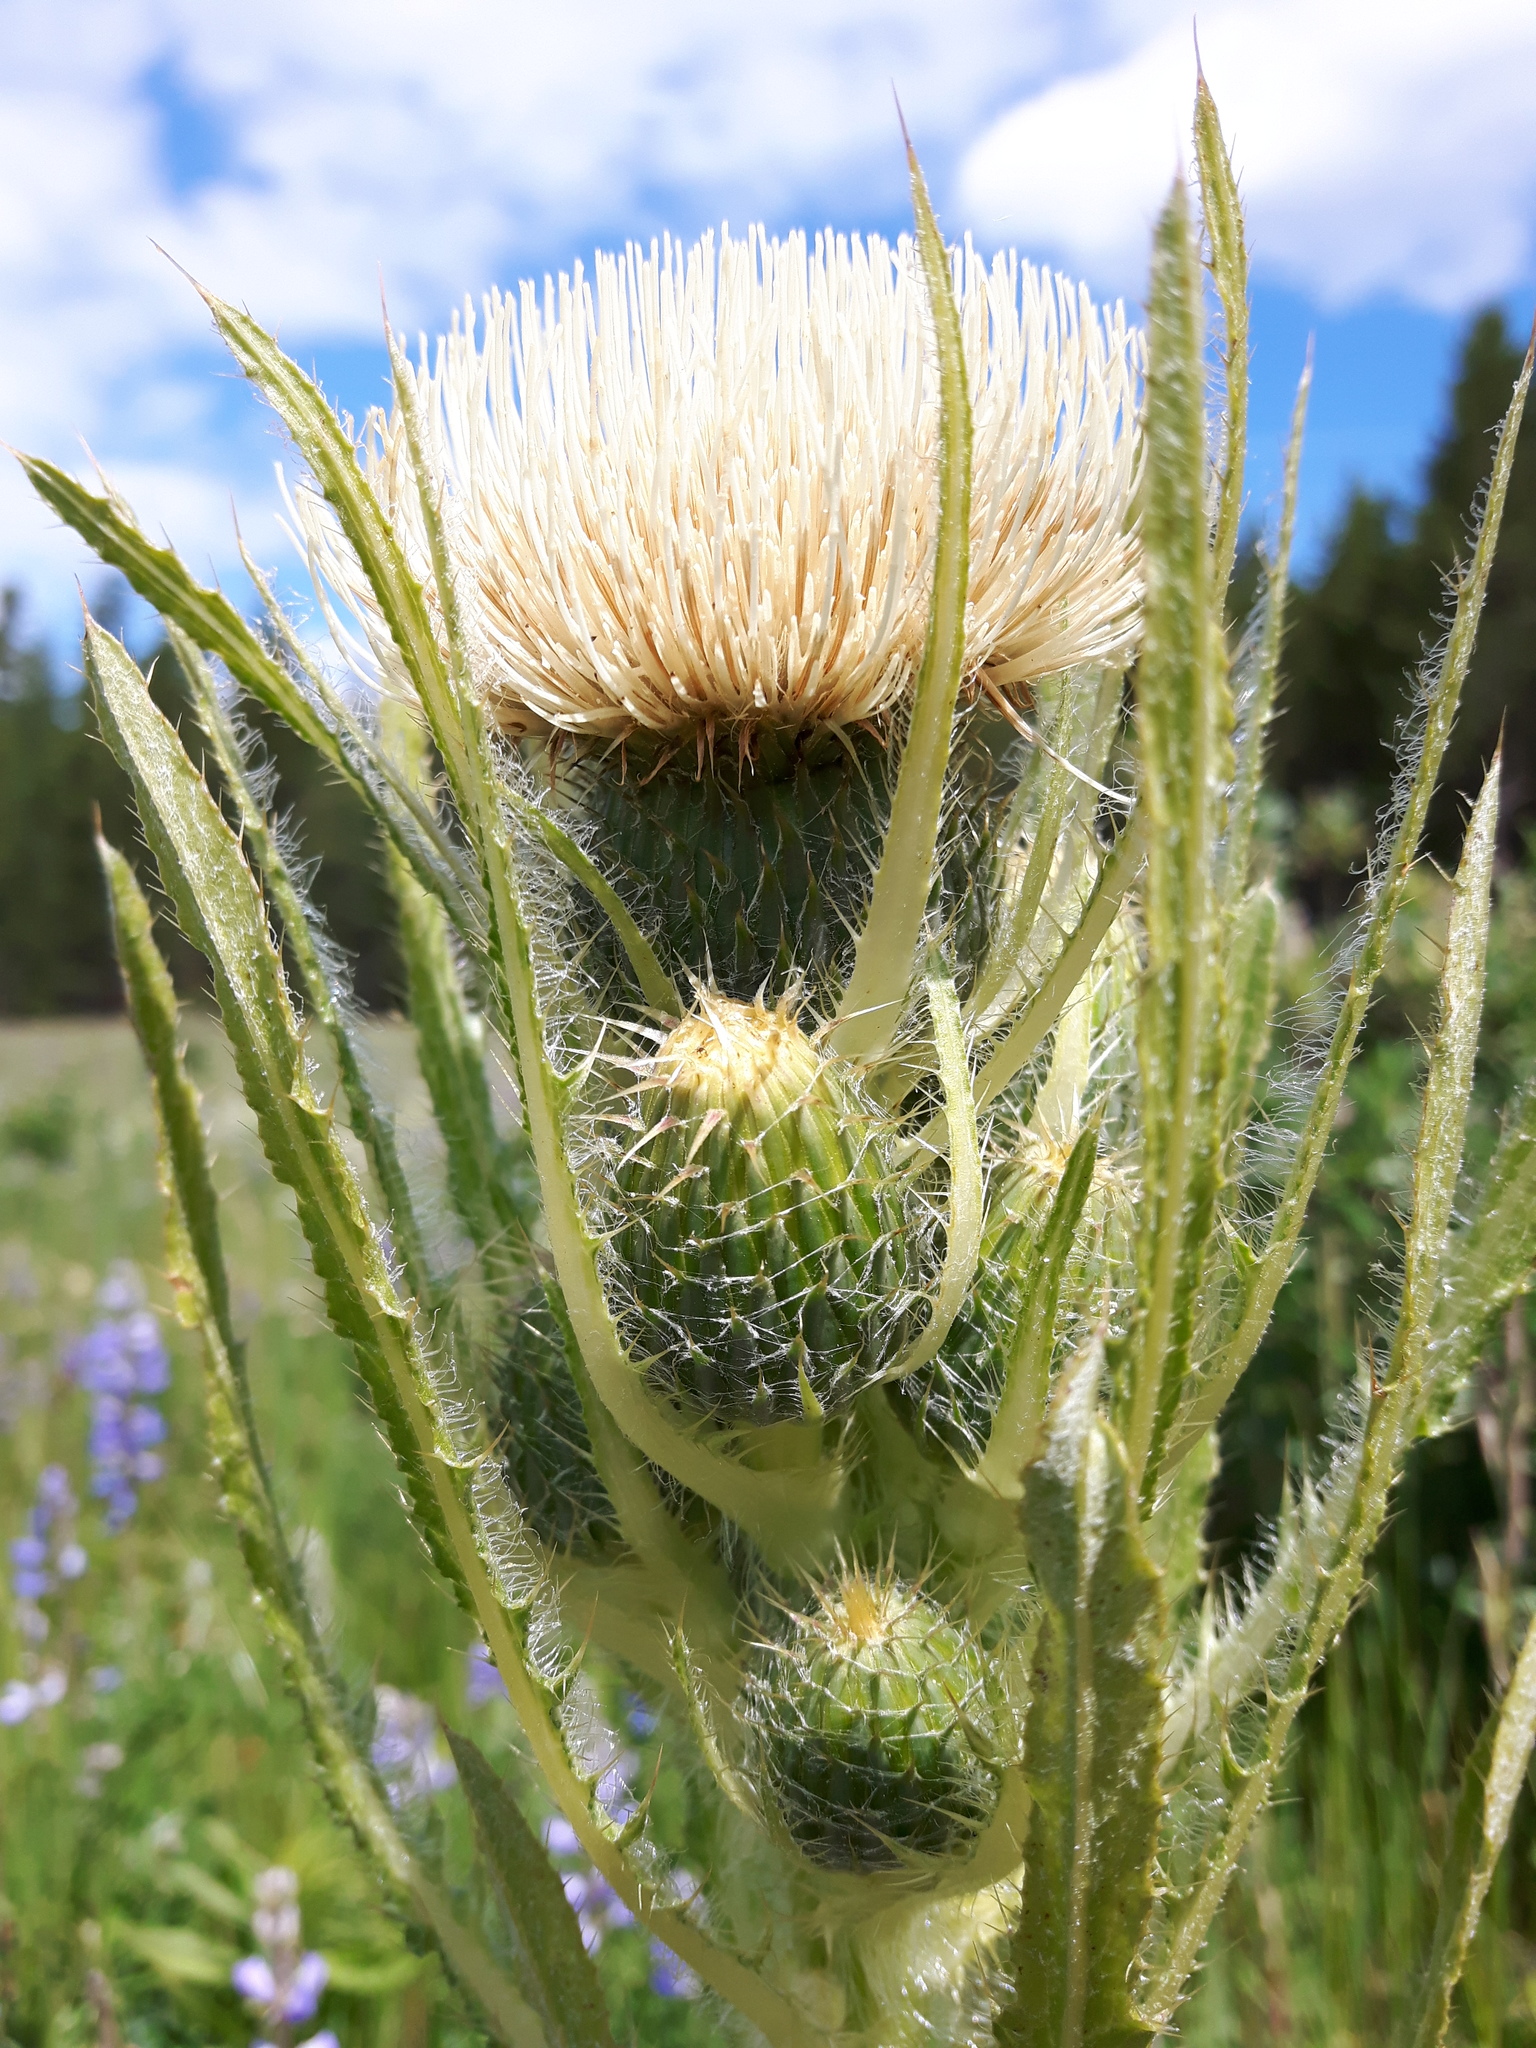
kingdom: Plantae
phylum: Tracheophyta
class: Magnoliopsida
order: Asterales
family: Asteraceae
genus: Cirsium
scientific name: Cirsium scariosum
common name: Meadow thistle
